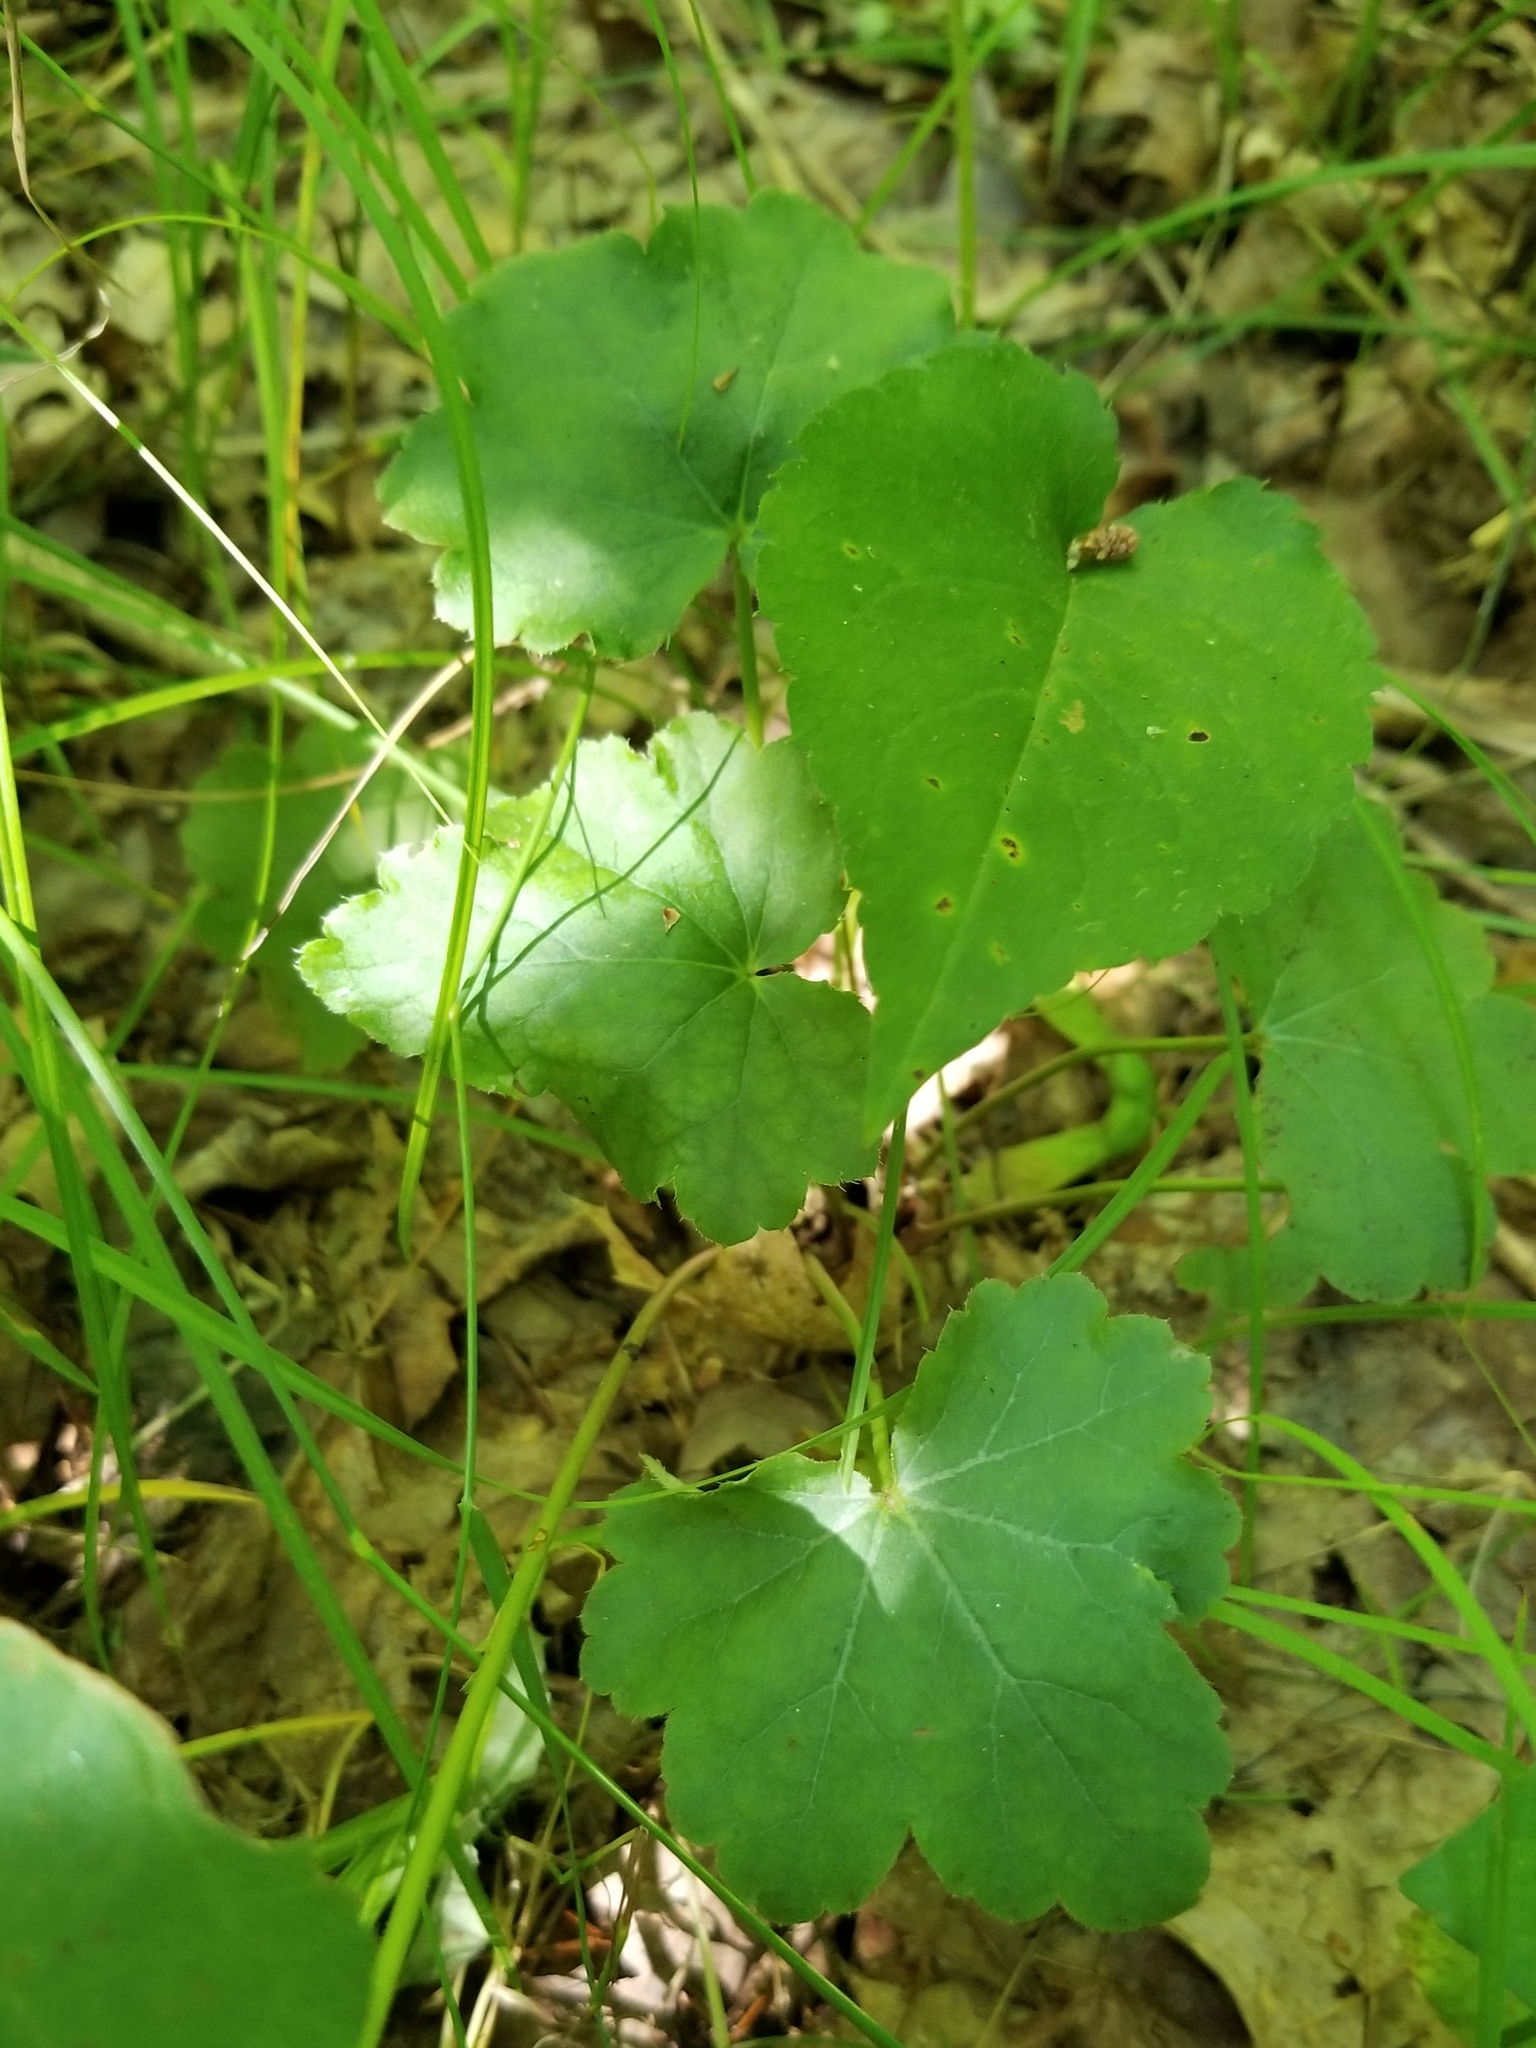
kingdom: Plantae
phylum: Tracheophyta
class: Magnoliopsida
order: Saxifragales
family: Saxifragaceae
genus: Heuchera
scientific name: Heuchera alba
